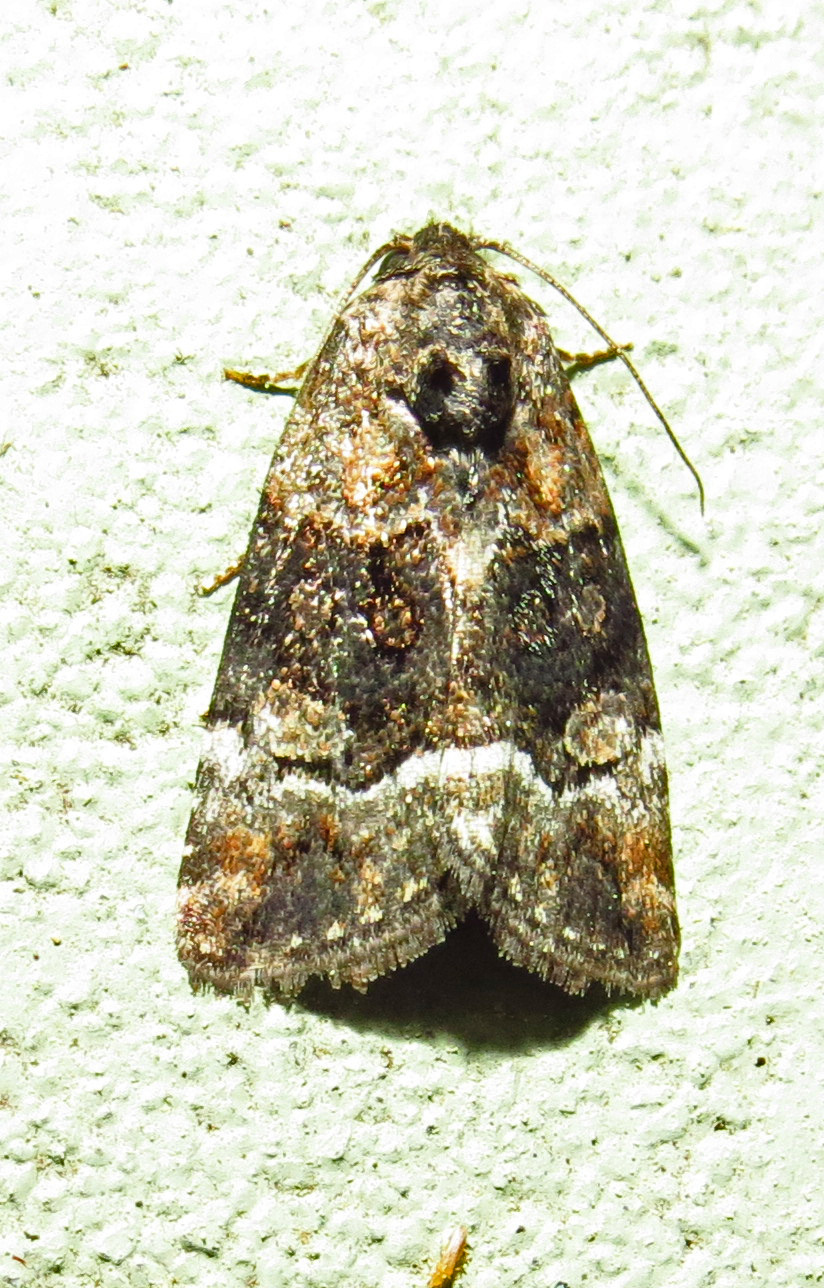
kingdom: Animalia
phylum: Arthropoda
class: Insecta
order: Lepidoptera
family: Noctuidae
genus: Elaphria
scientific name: Elaphria georgei
